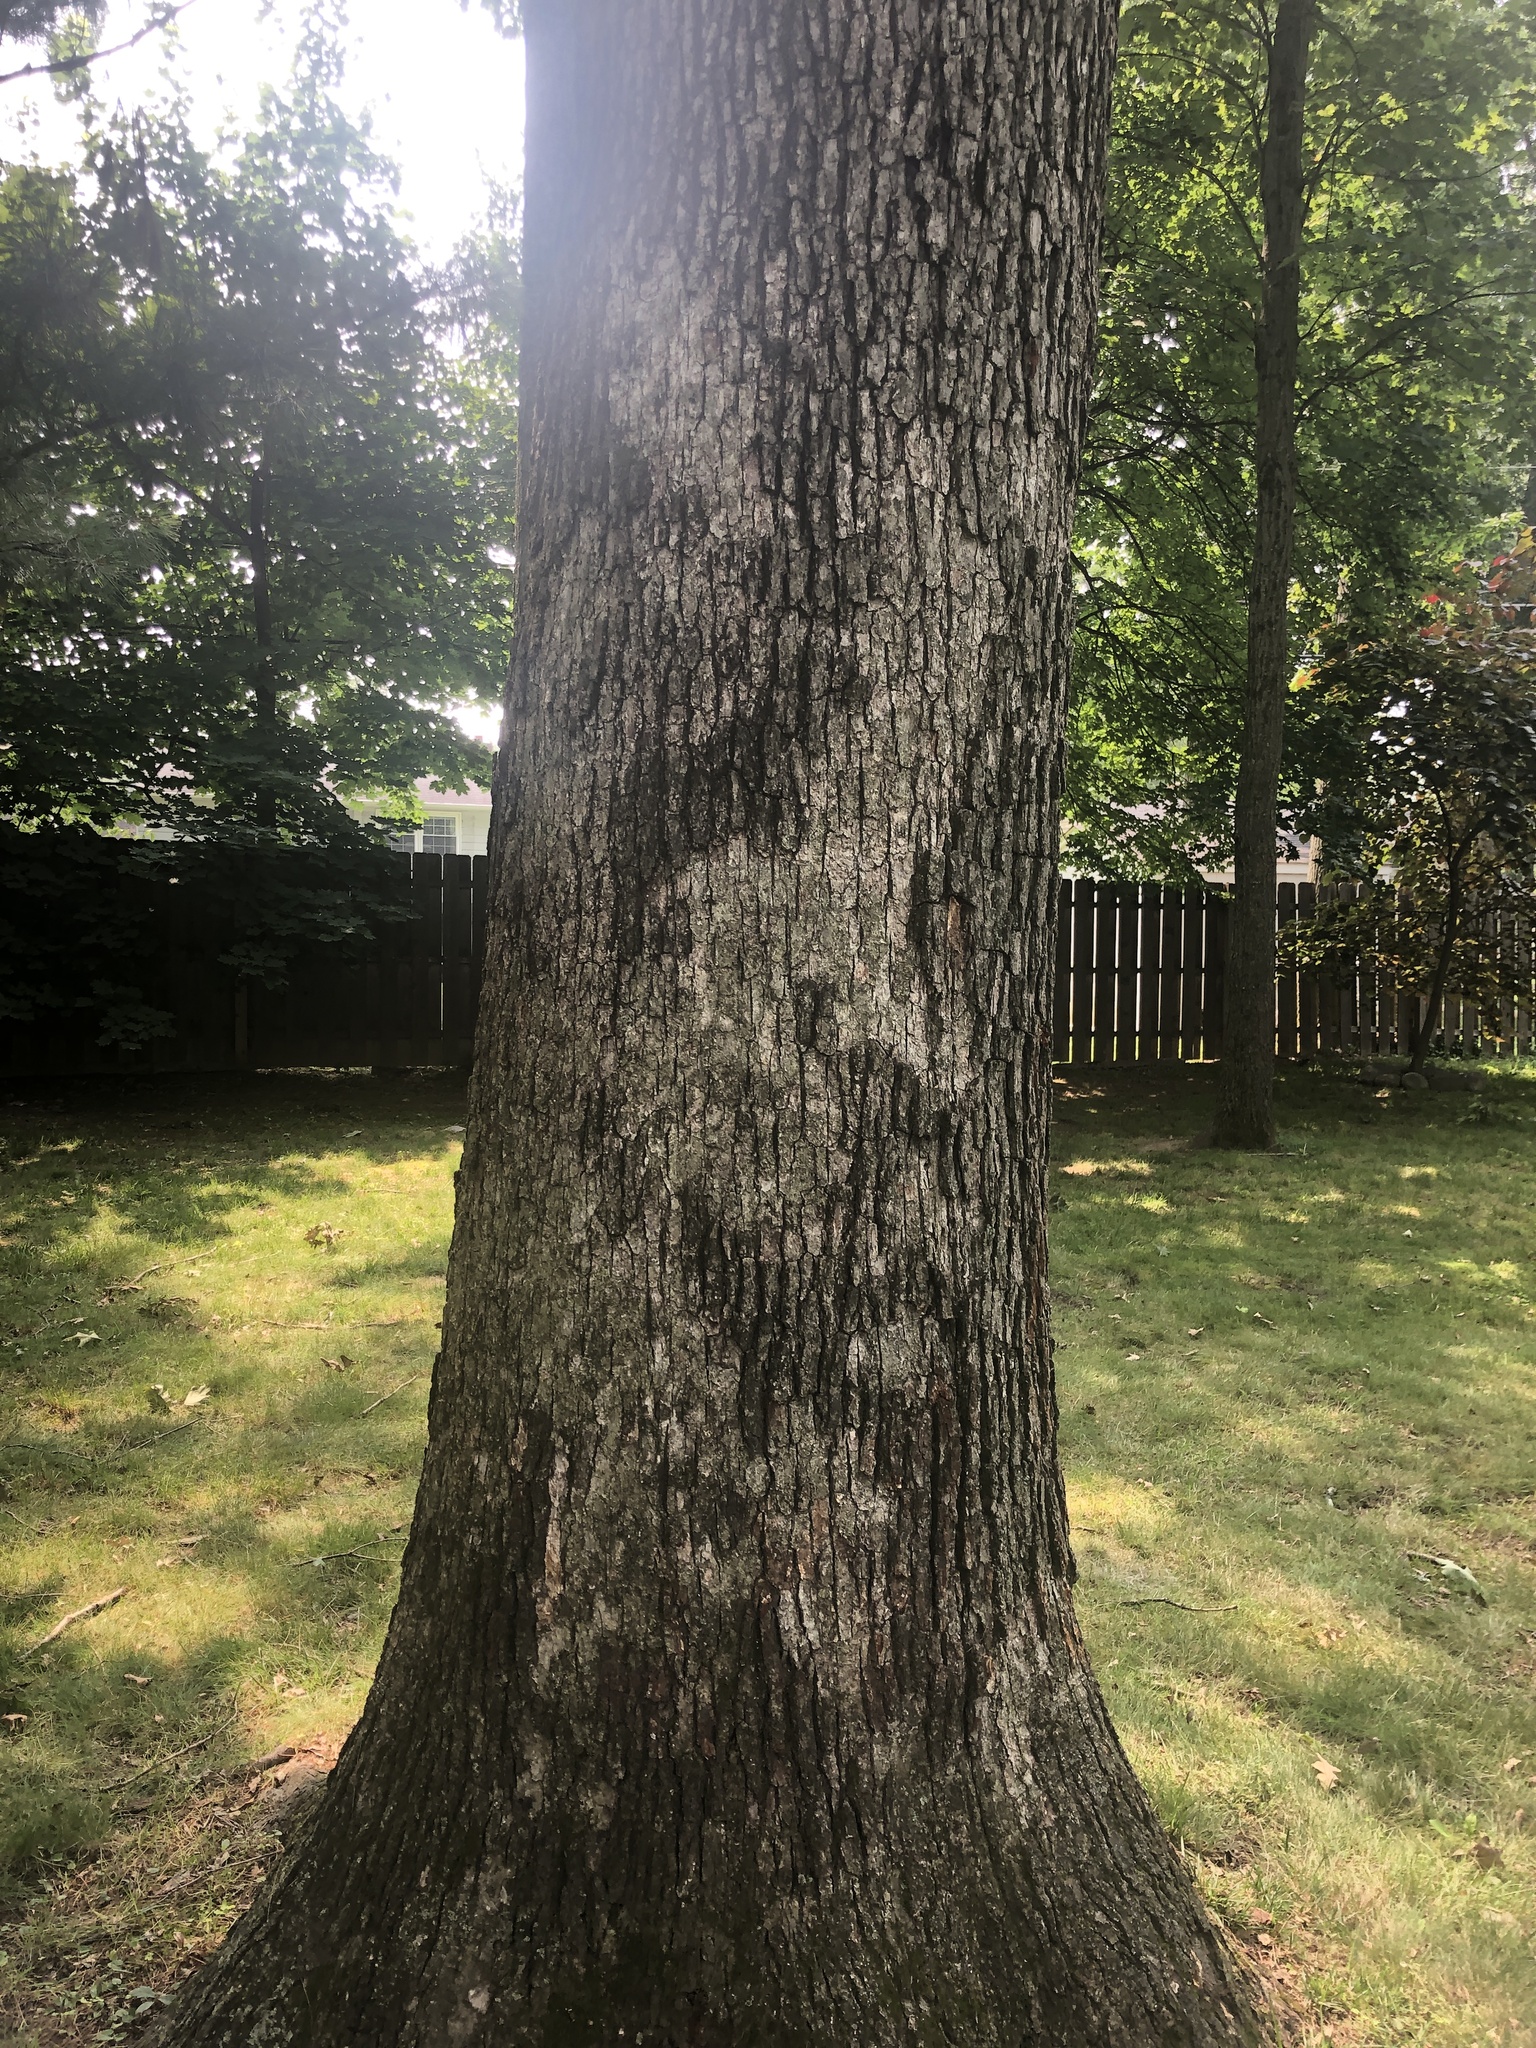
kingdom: Fungi
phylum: Basidiomycota
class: Agaricomycetes
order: Russulales
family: Stereaceae
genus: Acanthophysium
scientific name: Acanthophysium oakesii
